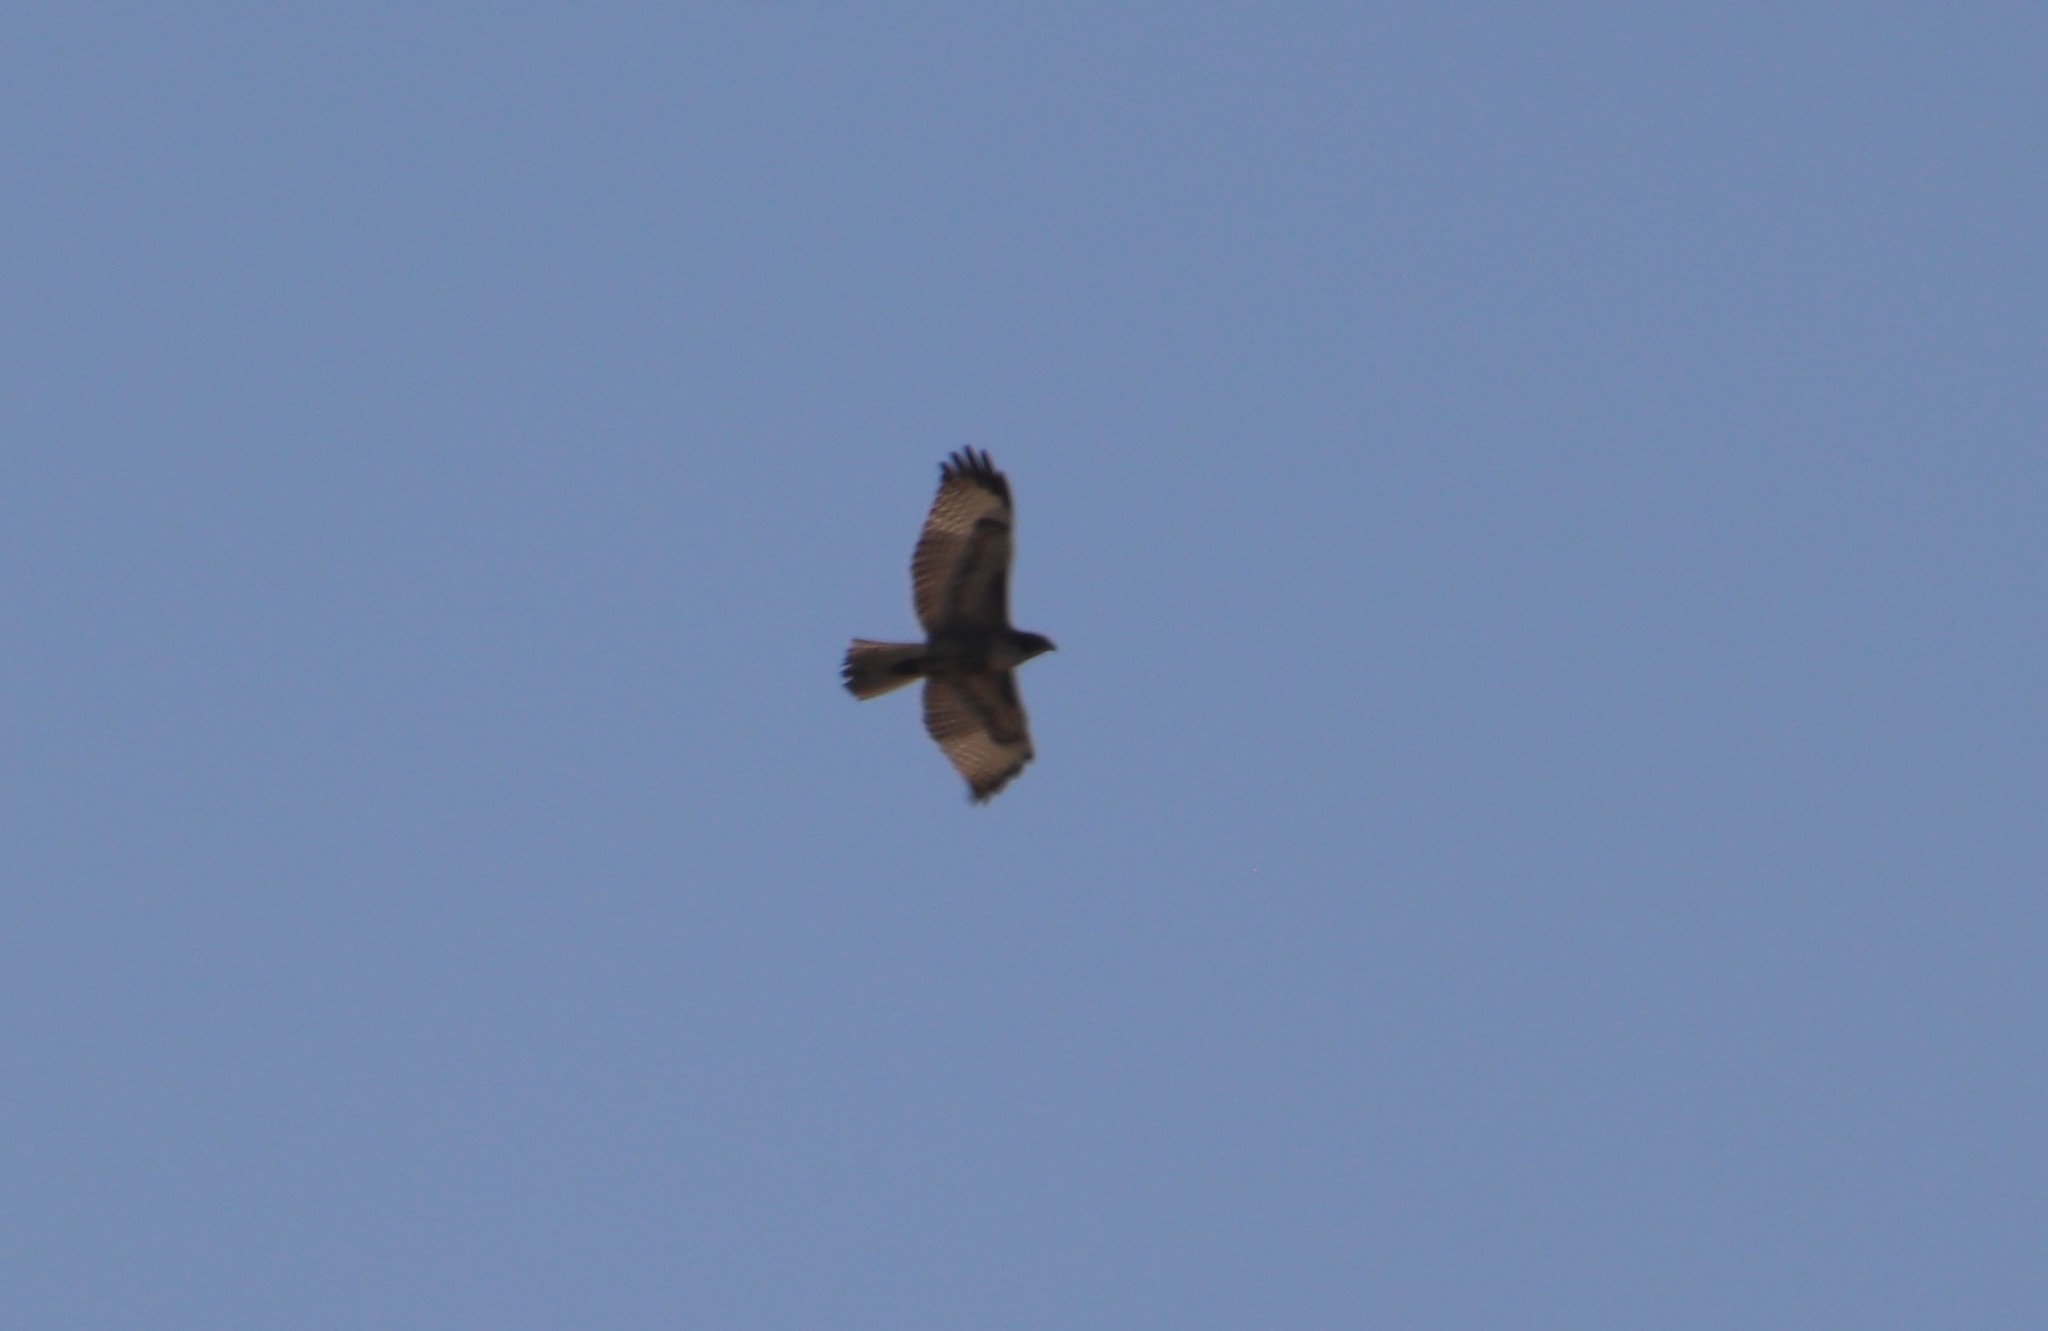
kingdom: Animalia
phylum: Chordata
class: Aves
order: Accipitriformes
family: Accipitridae
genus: Buteo
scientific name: Buteo jamaicensis
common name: Red-tailed hawk
